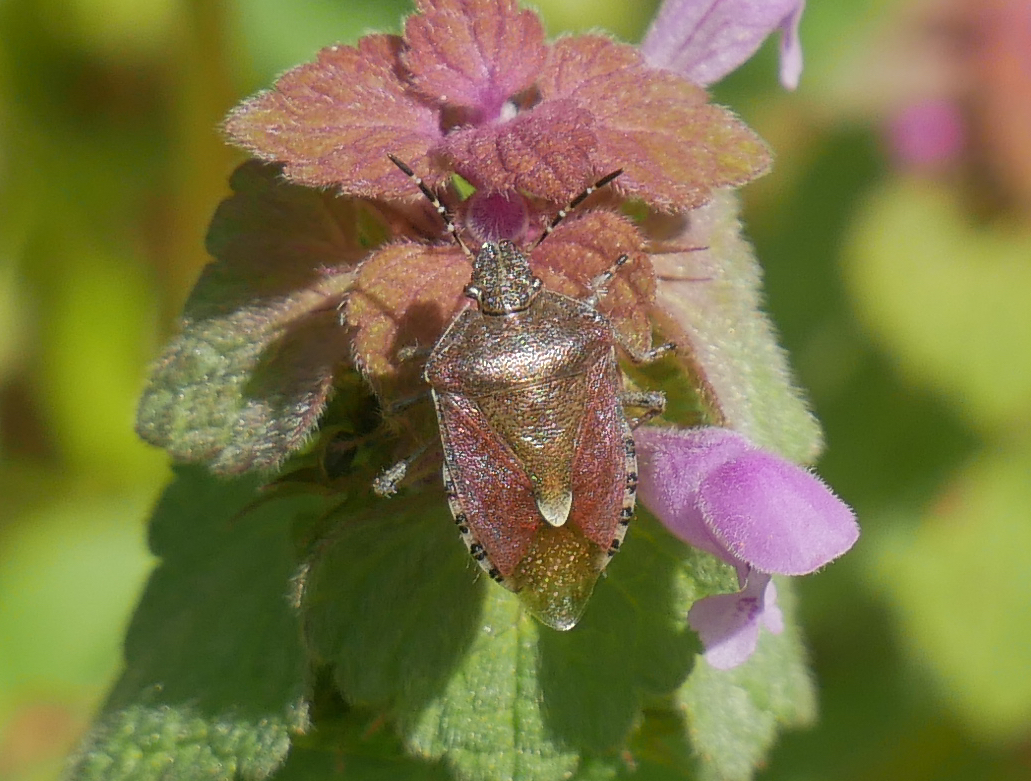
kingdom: Animalia
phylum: Arthropoda
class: Insecta
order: Hemiptera
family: Pentatomidae
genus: Dolycoris
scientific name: Dolycoris baccarum
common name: Sloe bug
